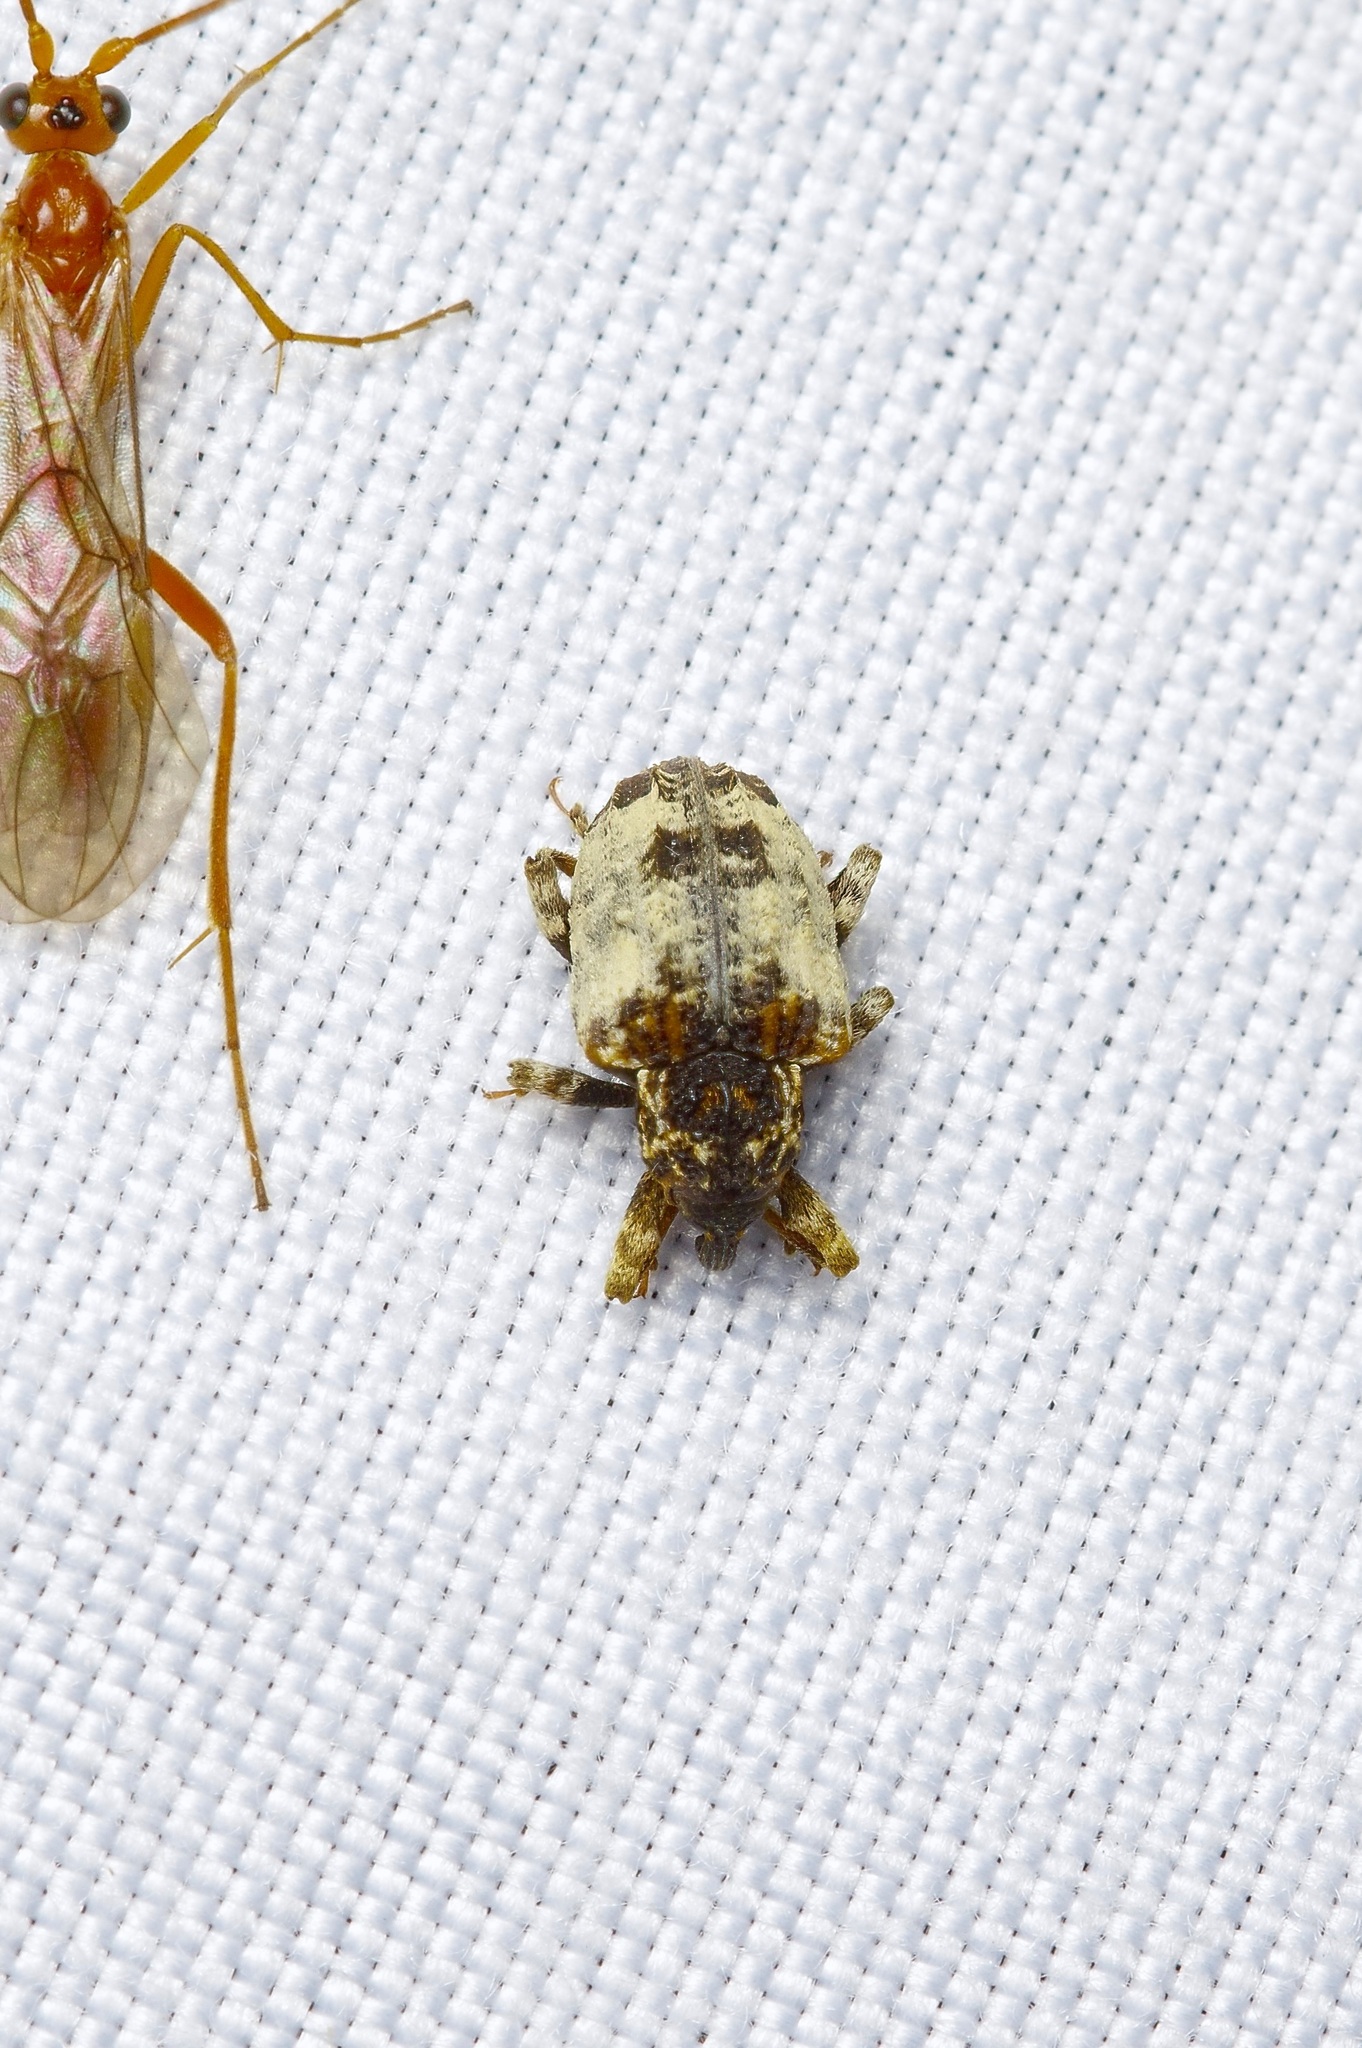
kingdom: Animalia
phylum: Arthropoda
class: Insecta
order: Coleoptera
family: Curculionidae
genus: Conotrachelus
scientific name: Conotrachelus leucophaeatus
